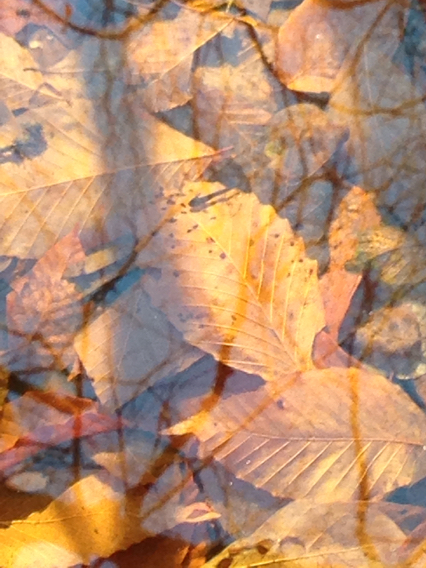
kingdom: Animalia
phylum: Chordata
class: Amphibia
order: Caudata
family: Ambystomatidae
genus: Ambystoma
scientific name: Ambystoma opacum
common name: Marbled salamander
